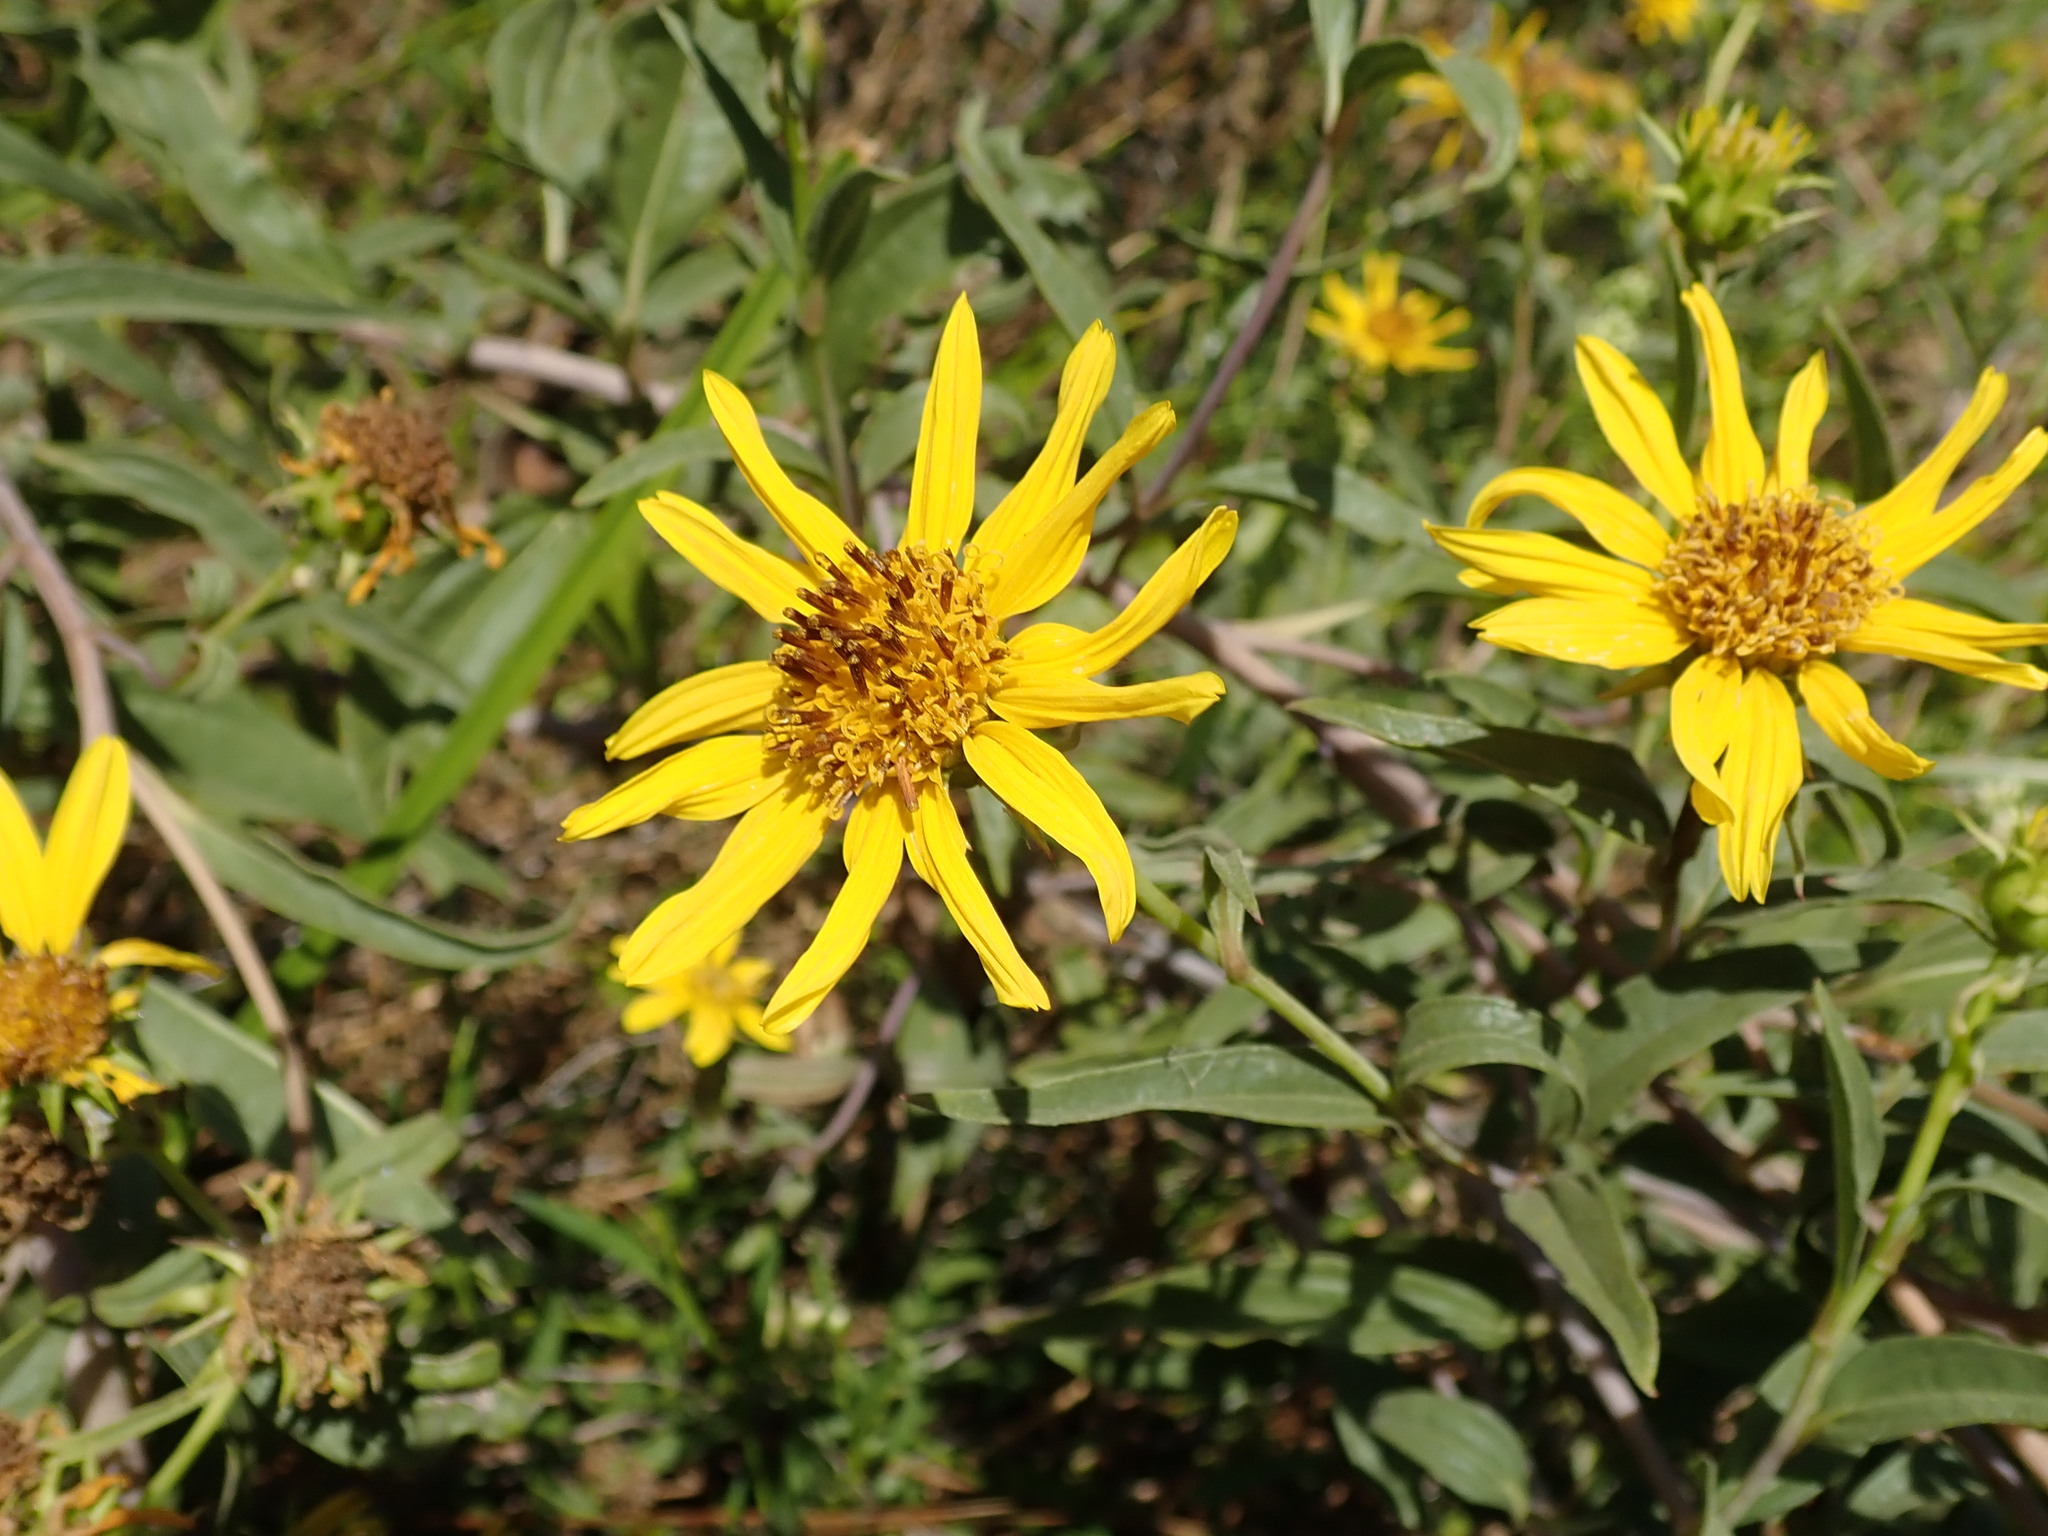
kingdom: Plantae
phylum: Tracheophyta
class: Magnoliopsida
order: Asterales
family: Asteraceae
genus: Helianthus
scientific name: Helianthus californicus
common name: California sunflower
